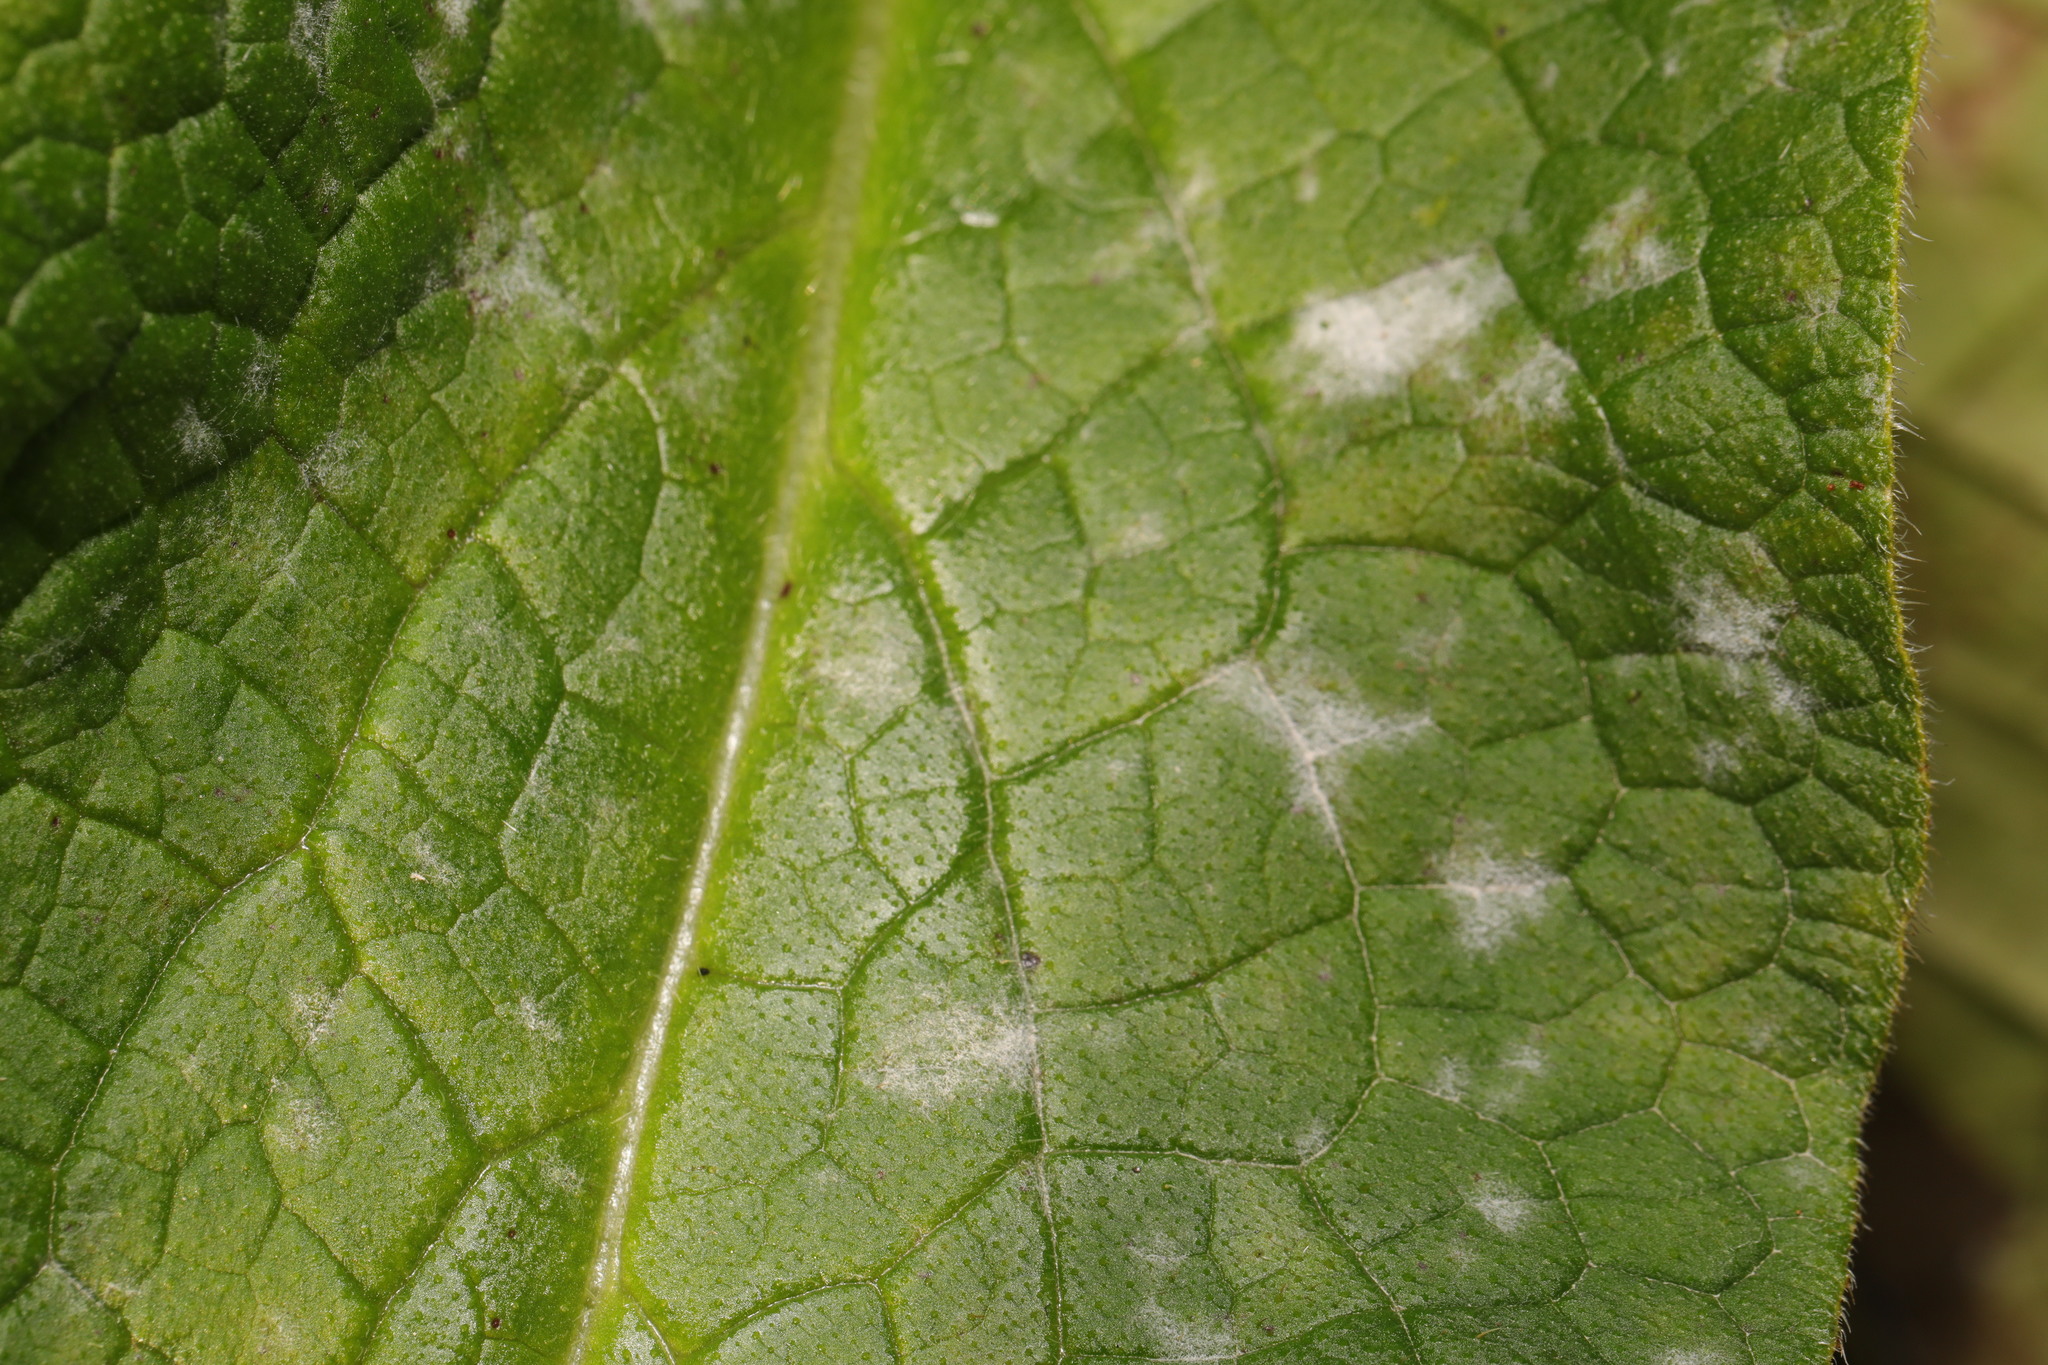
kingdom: Fungi
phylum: Ascomycota
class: Leotiomycetes
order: Helotiales
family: Erysiphaceae
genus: Golovinomyces
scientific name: Golovinomyces asperifoliorum
